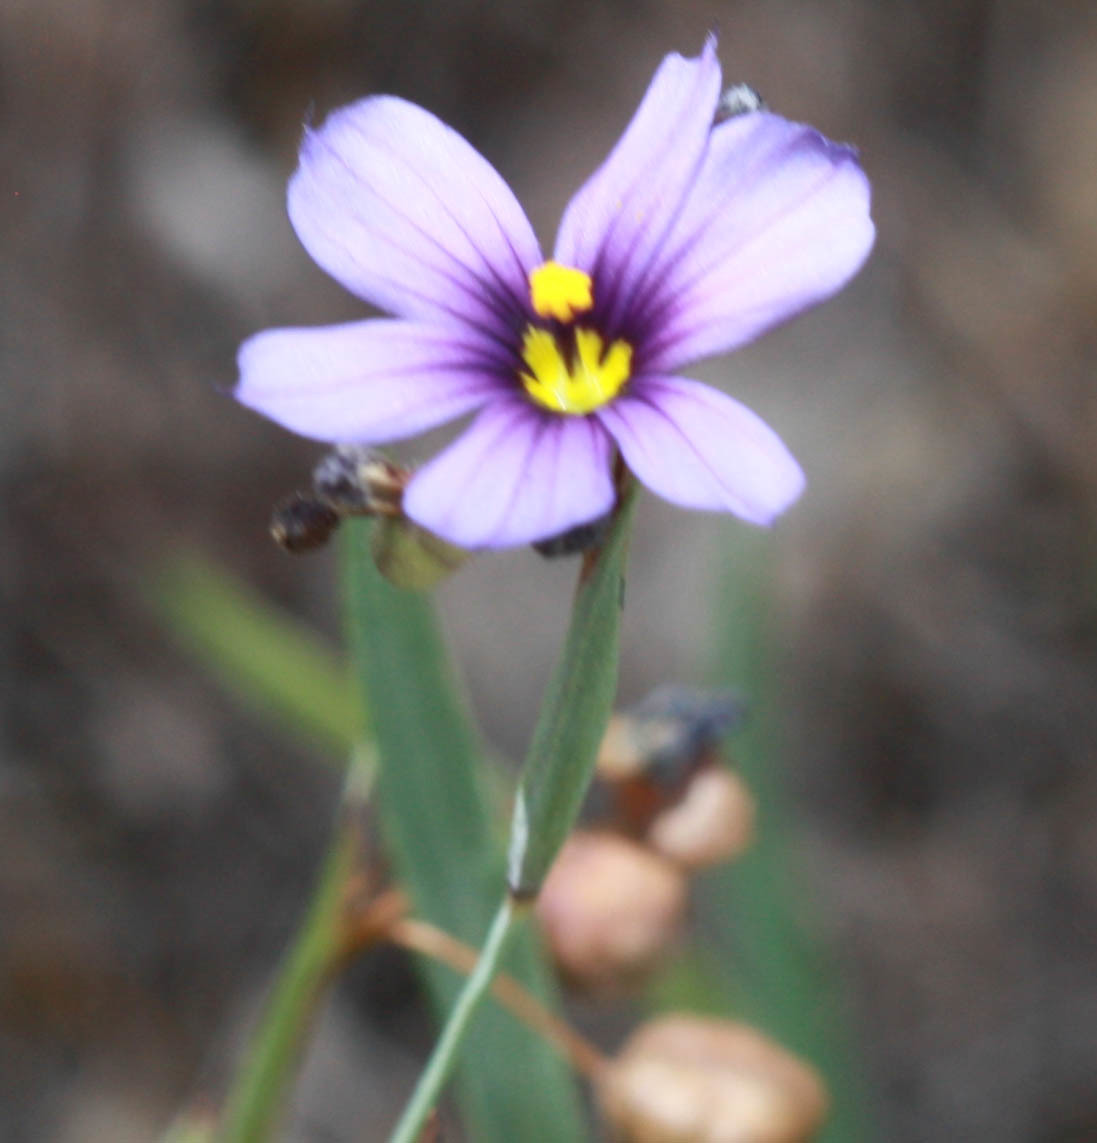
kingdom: Plantae
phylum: Tracheophyta
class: Liliopsida
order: Asparagales
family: Iridaceae
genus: Sisyrinchium
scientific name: Sisyrinchium bellum
